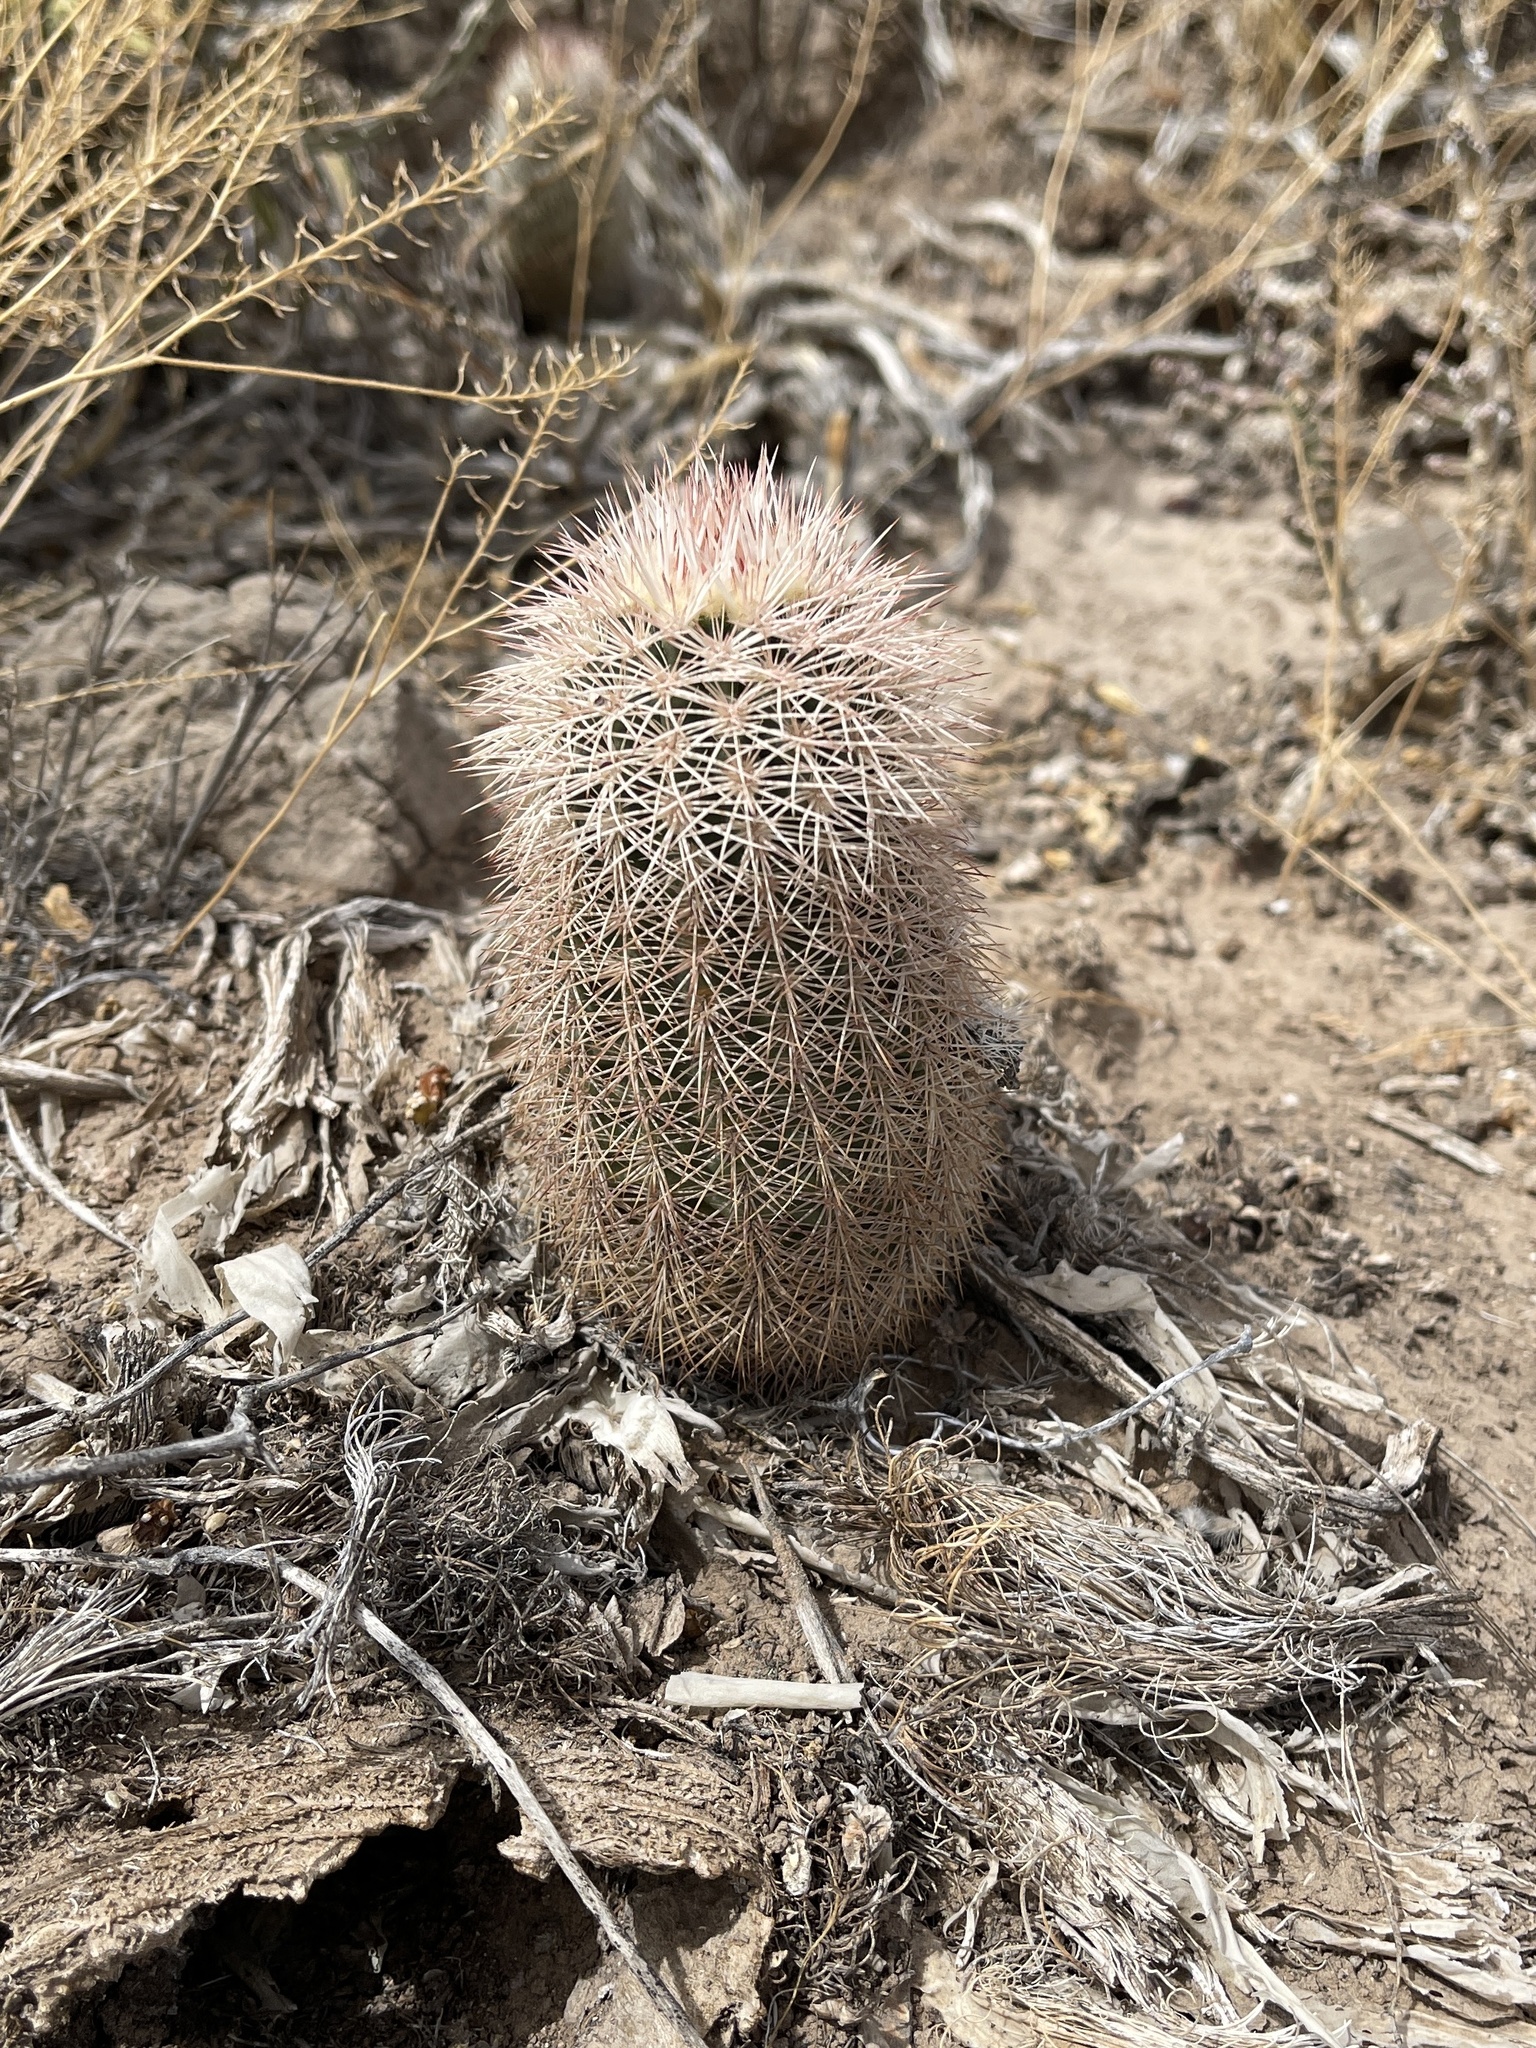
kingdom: Plantae
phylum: Tracheophyta
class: Magnoliopsida
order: Caryophyllales
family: Cactaceae
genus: Echinocereus
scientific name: Echinocereus dasyacanthus
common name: Spiny hedgehog cactus
